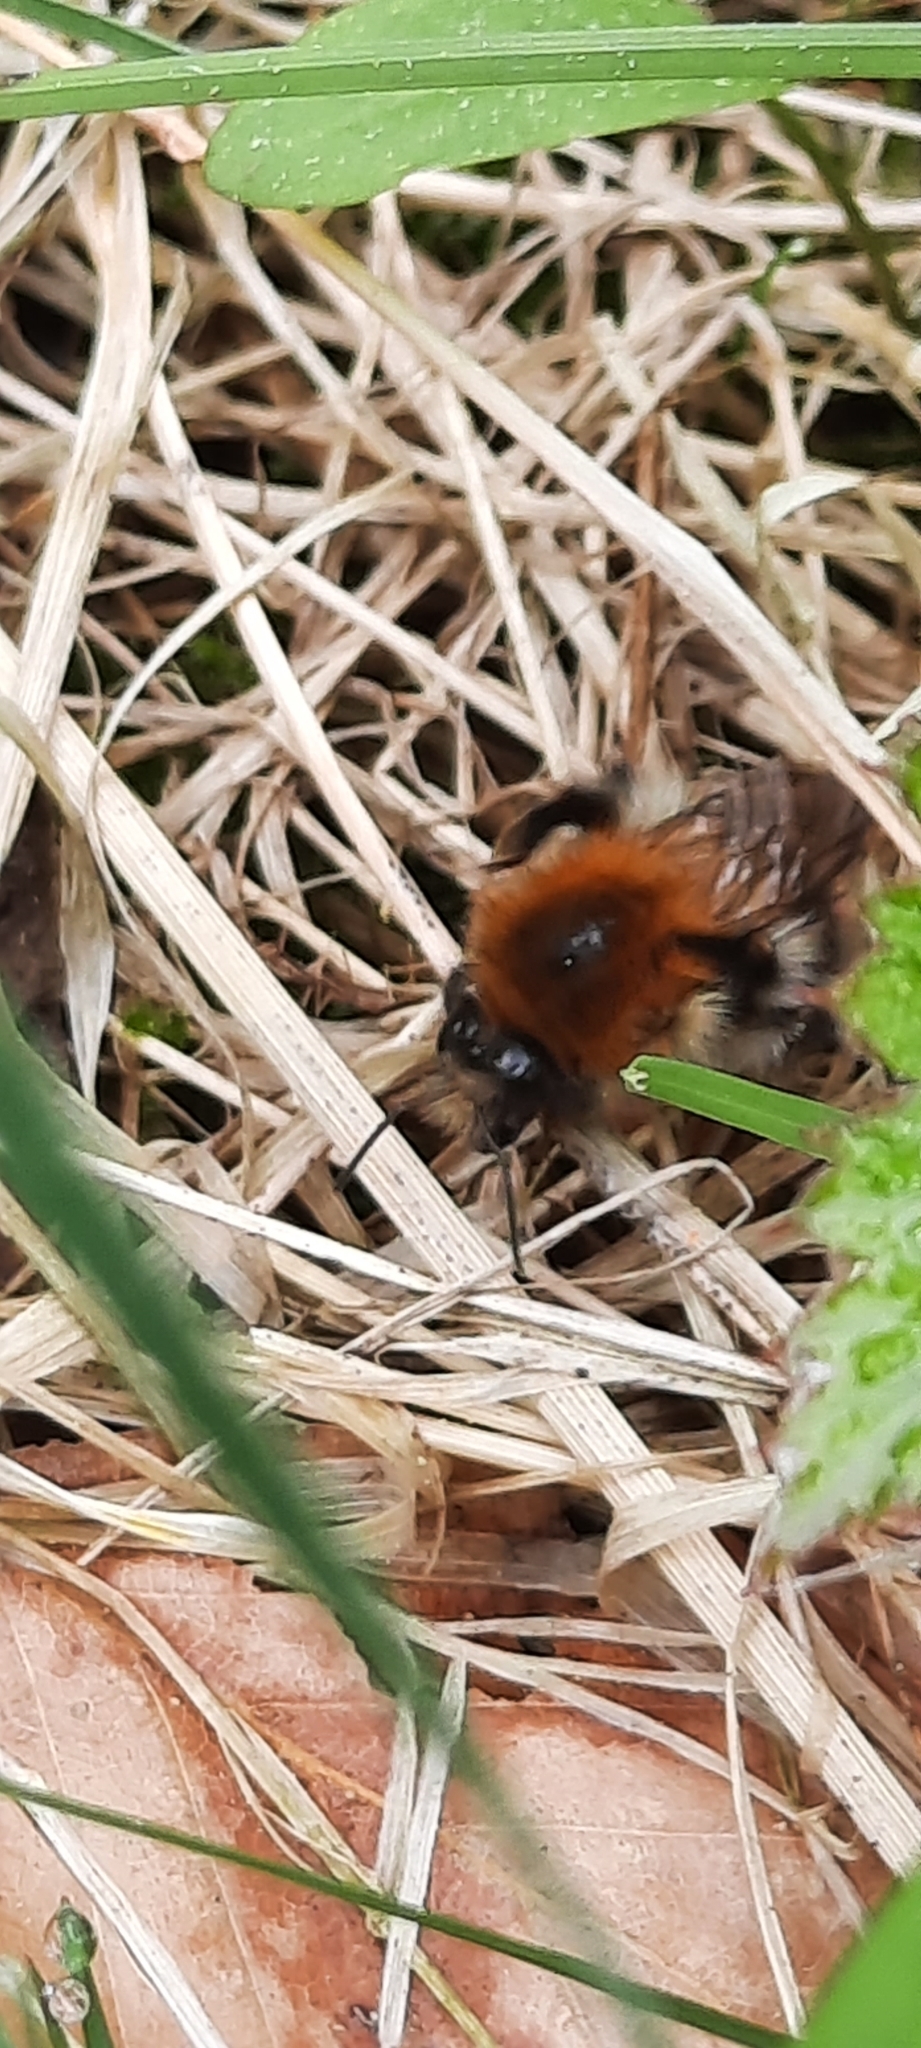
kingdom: Animalia
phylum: Arthropoda
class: Insecta
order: Hymenoptera
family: Apidae
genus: Bombus
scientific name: Bombus pascuorum
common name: Common carder bee
